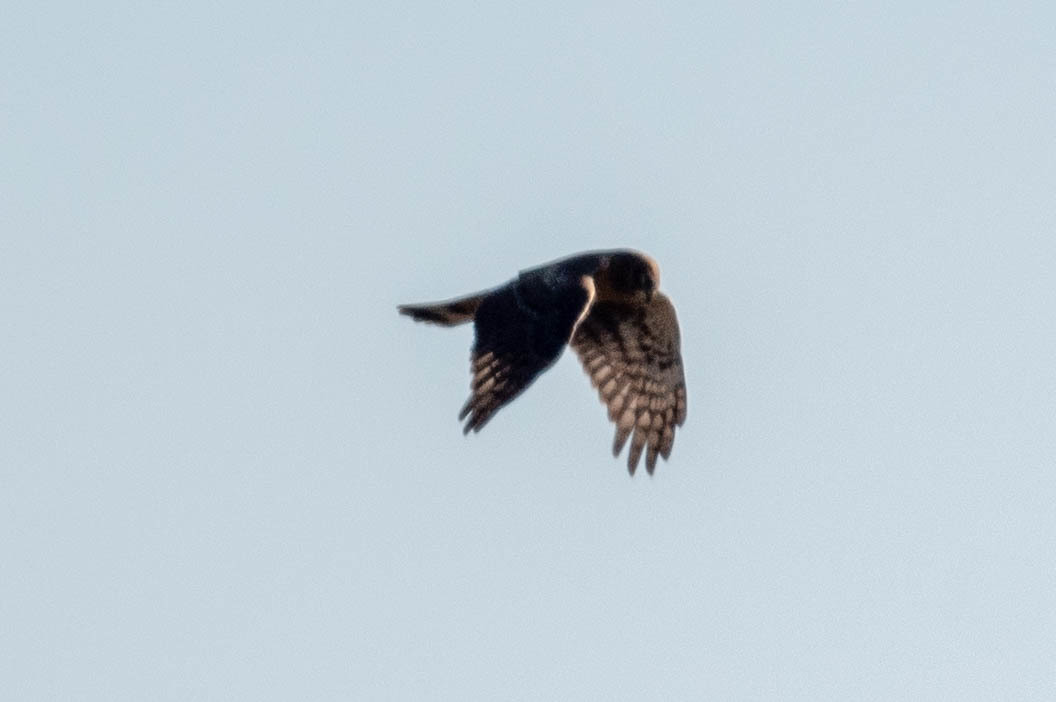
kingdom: Animalia
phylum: Chordata
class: Aves
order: Accipitriformes
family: Accipitridae
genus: Circus
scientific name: Circus cyaneus
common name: Hen harrier
